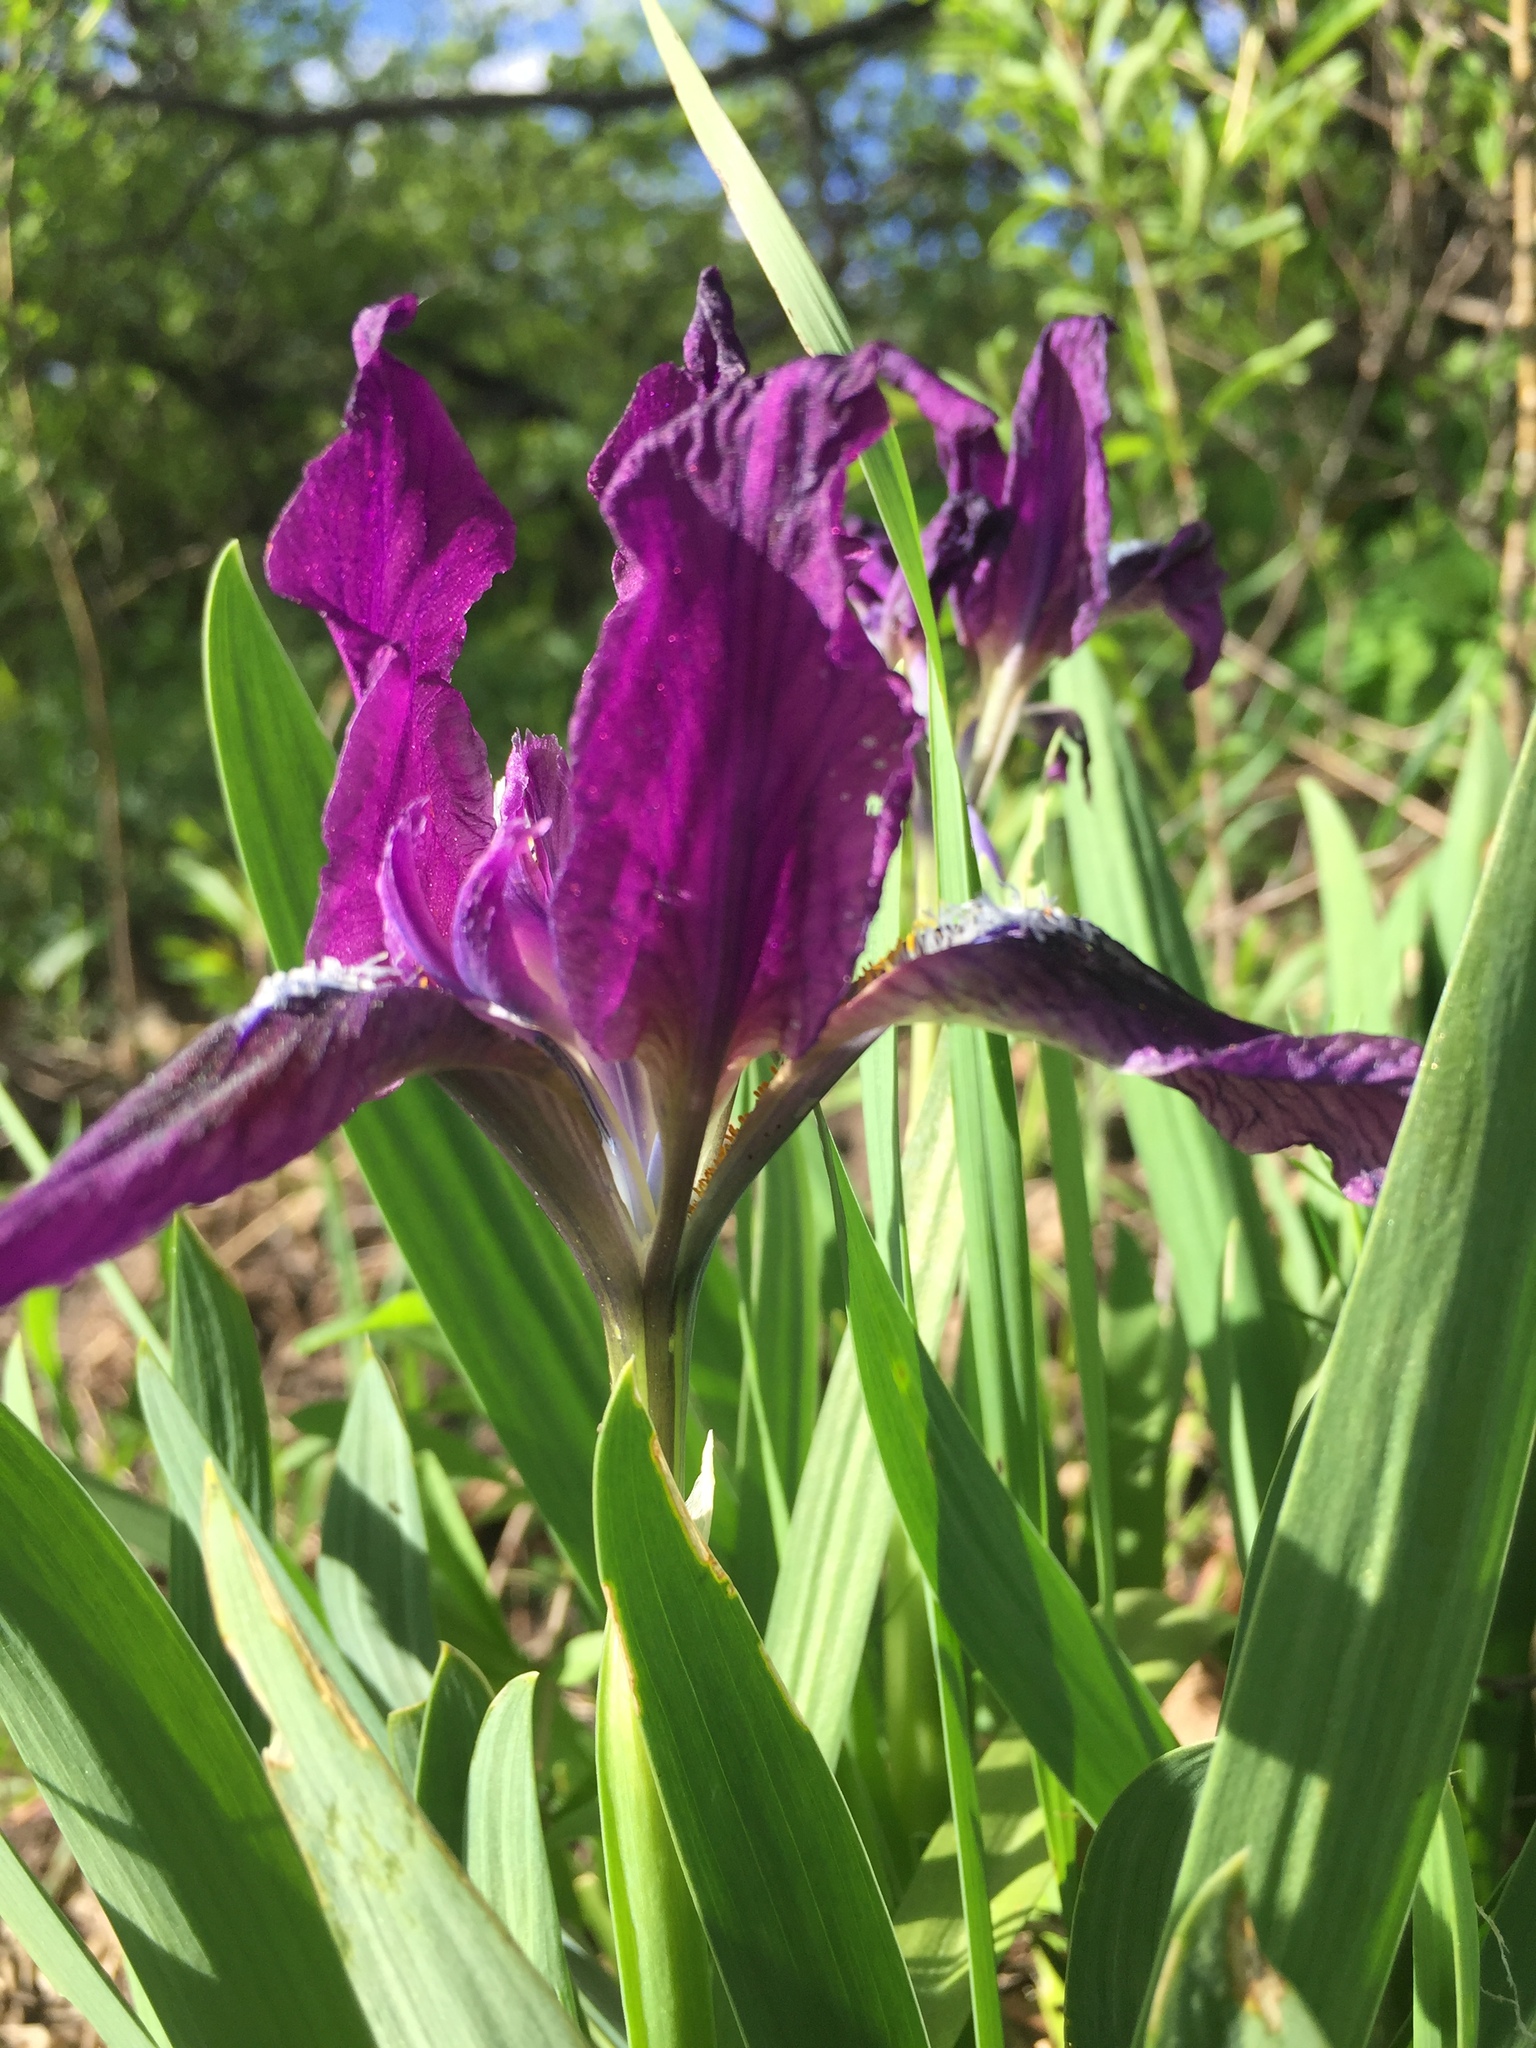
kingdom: Plantae
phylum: Tracheophyta
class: Liliopsida
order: Asparagales
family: Iridaceae
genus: Iris
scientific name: Iris pumila
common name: Dwarf iris
